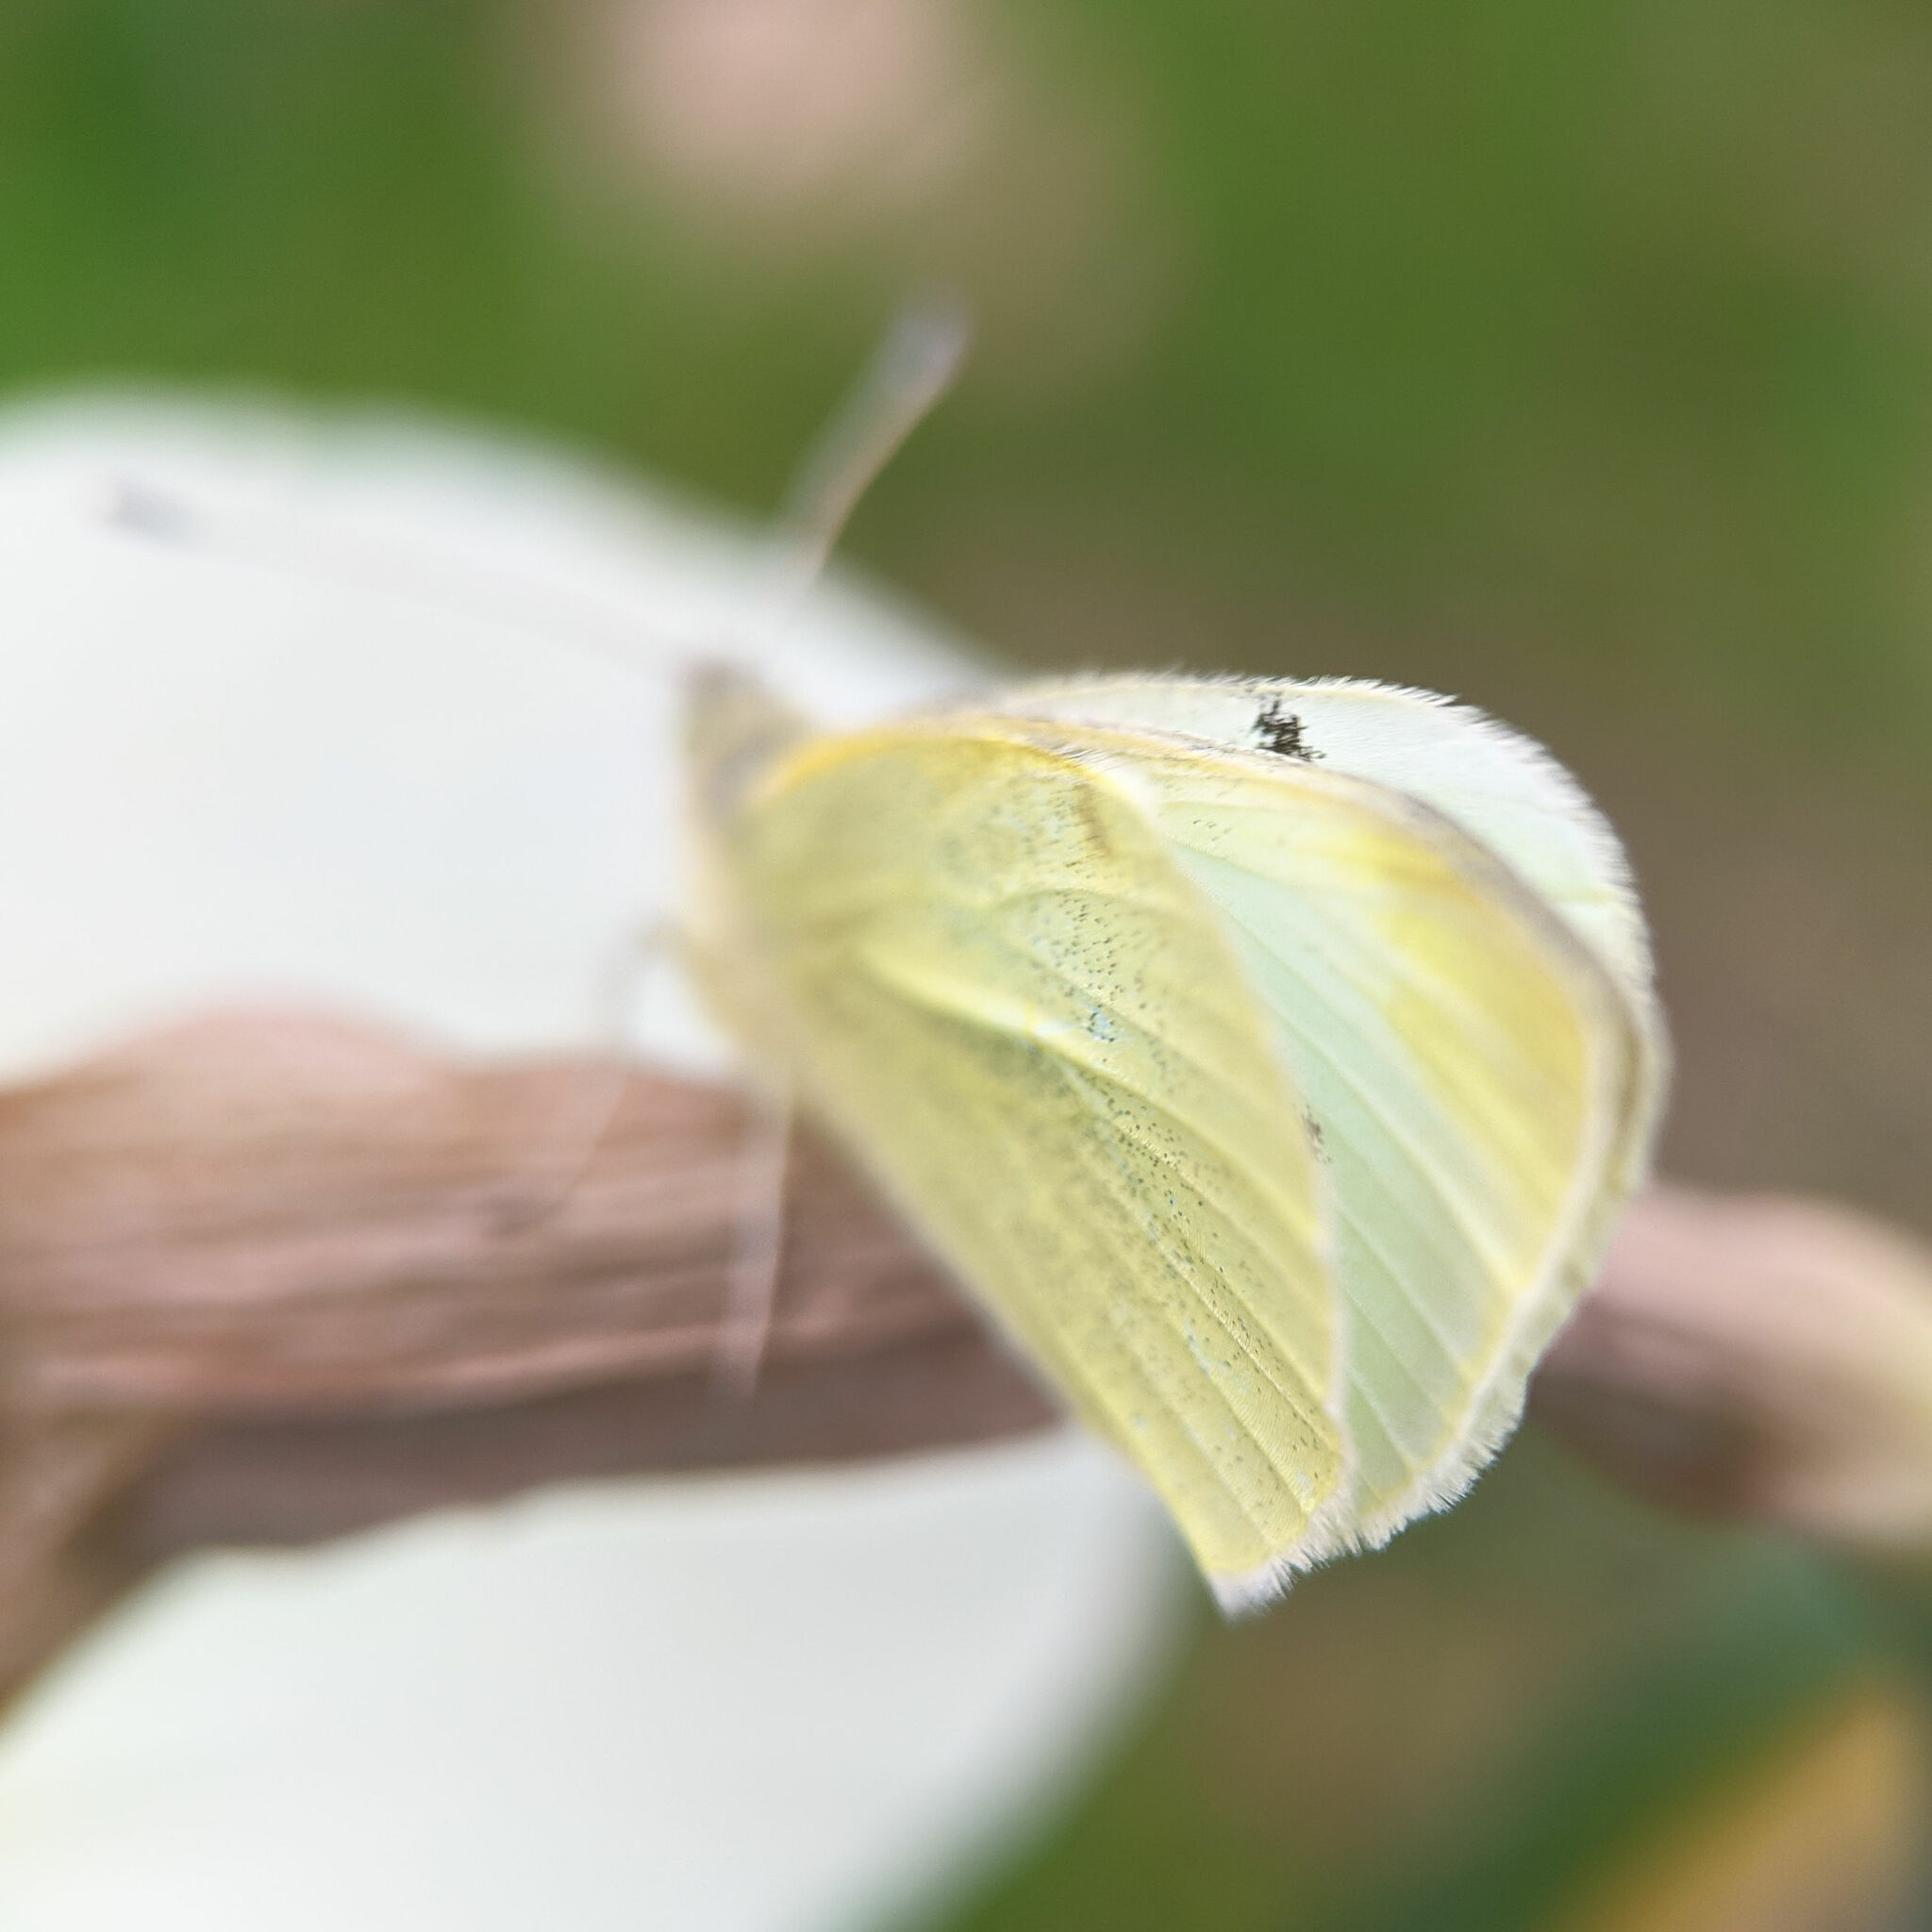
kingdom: Animalia
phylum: Arthropoda
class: Insecta
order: Lepidoptera
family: Pieridae
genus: Pieris
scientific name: Pieris rapae
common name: Small white
